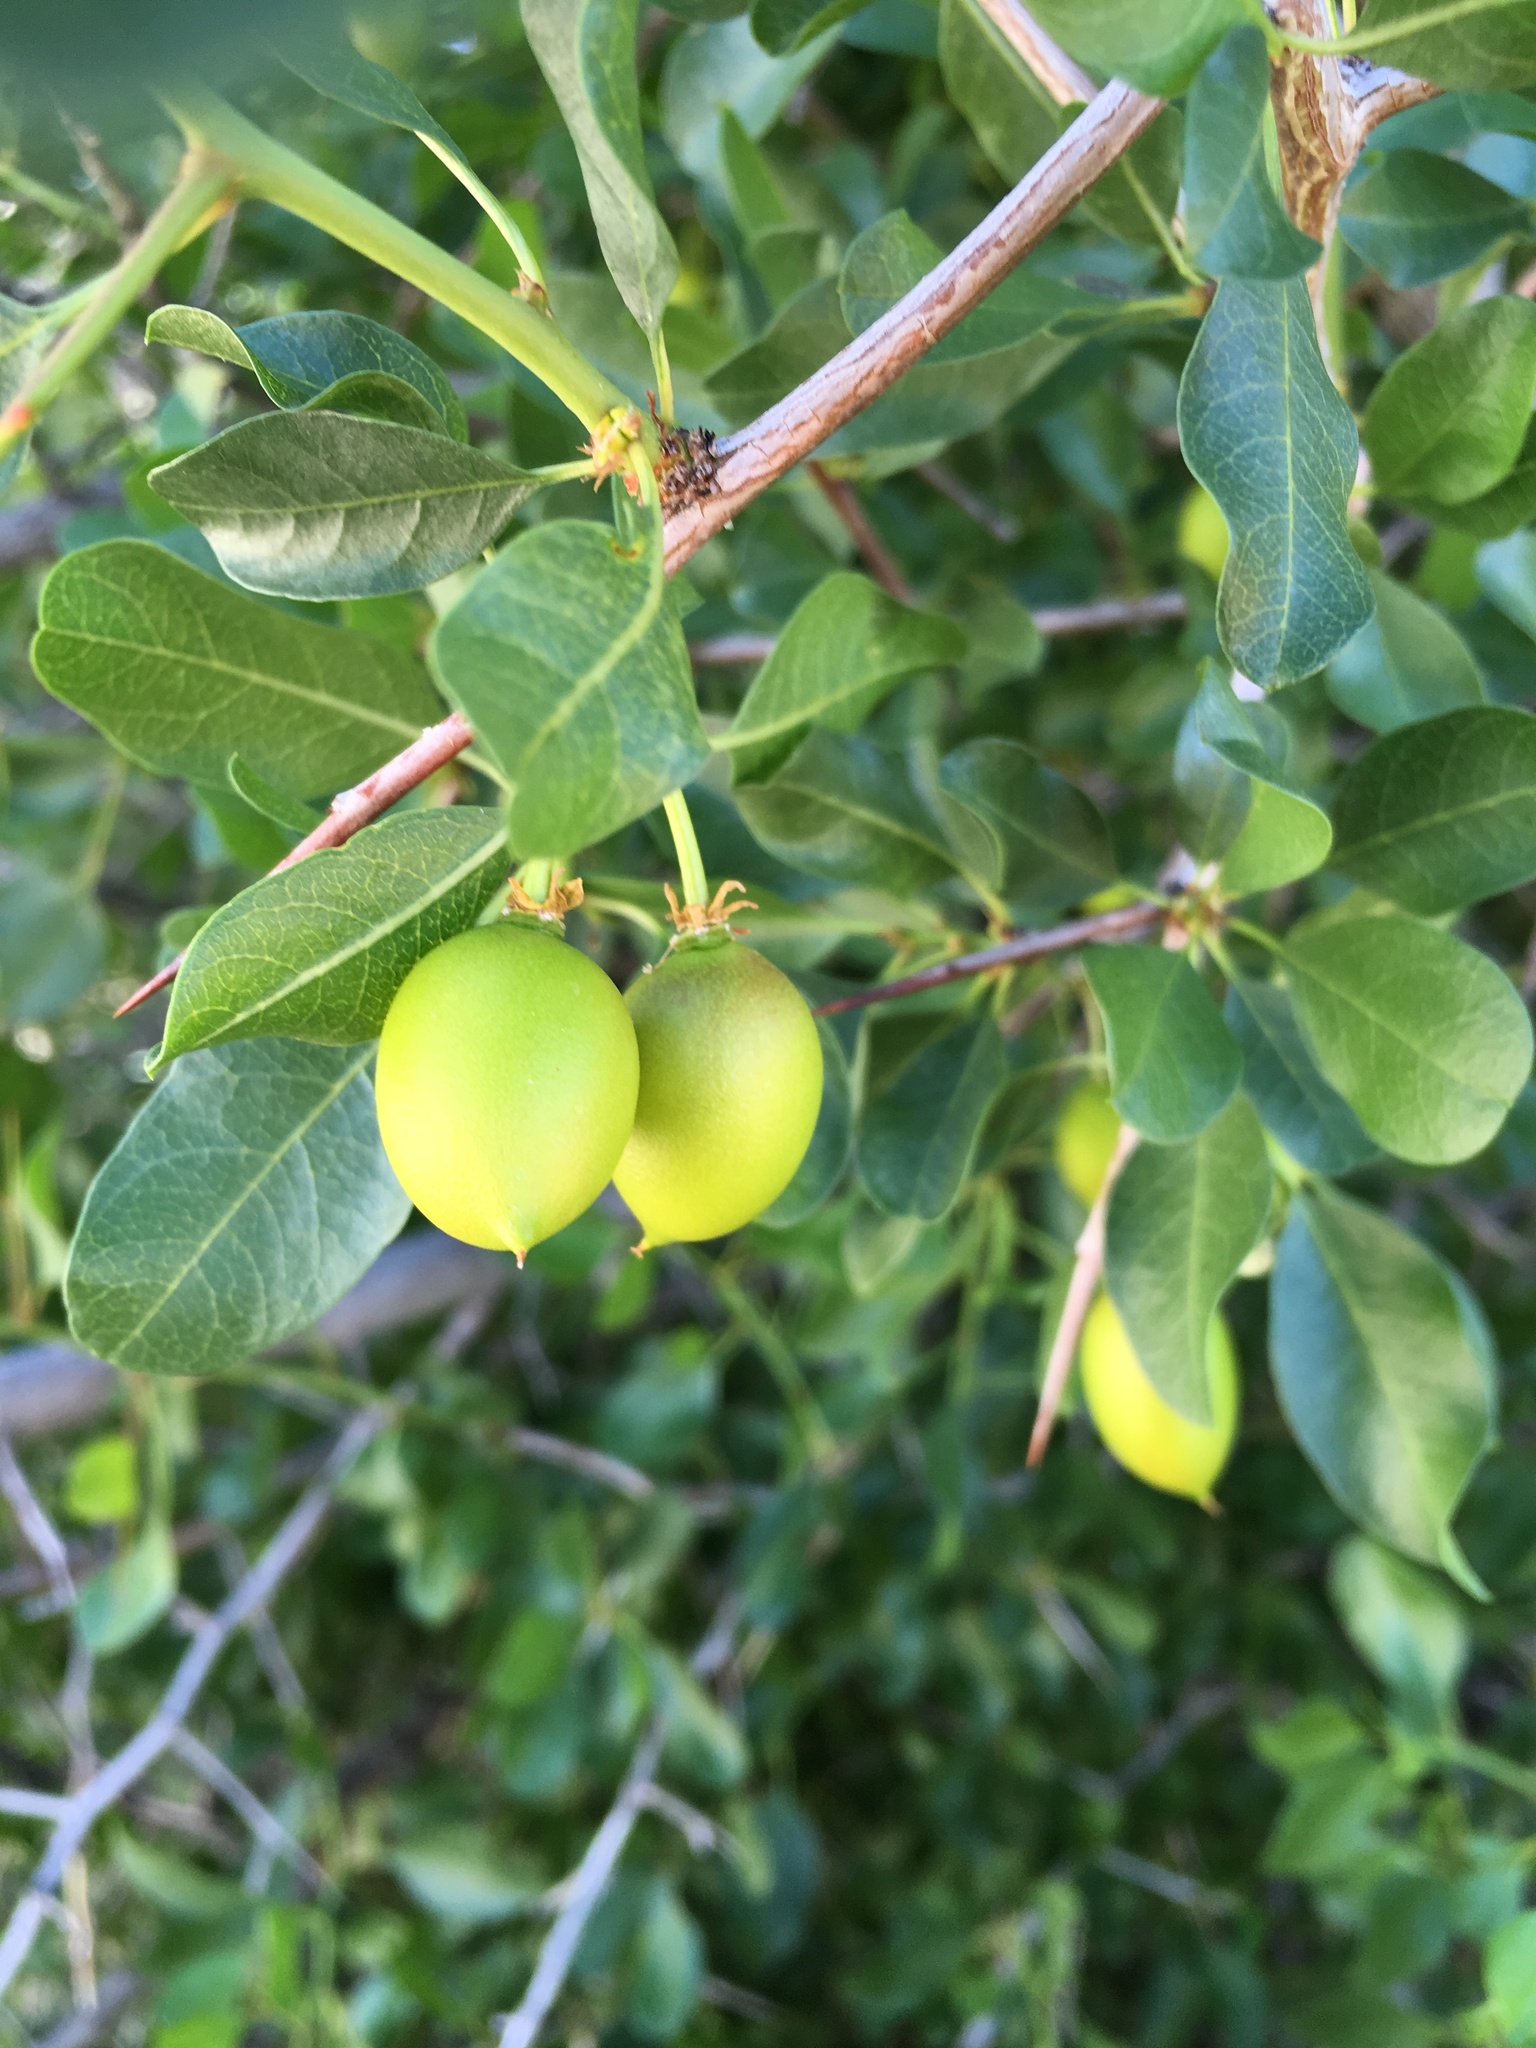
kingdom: Plantae
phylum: Tracheophyta
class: Magnoliopsida
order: Rosales
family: Rhamnaceae
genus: Pseudoziziphus
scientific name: Pseudoziziphus parryi
